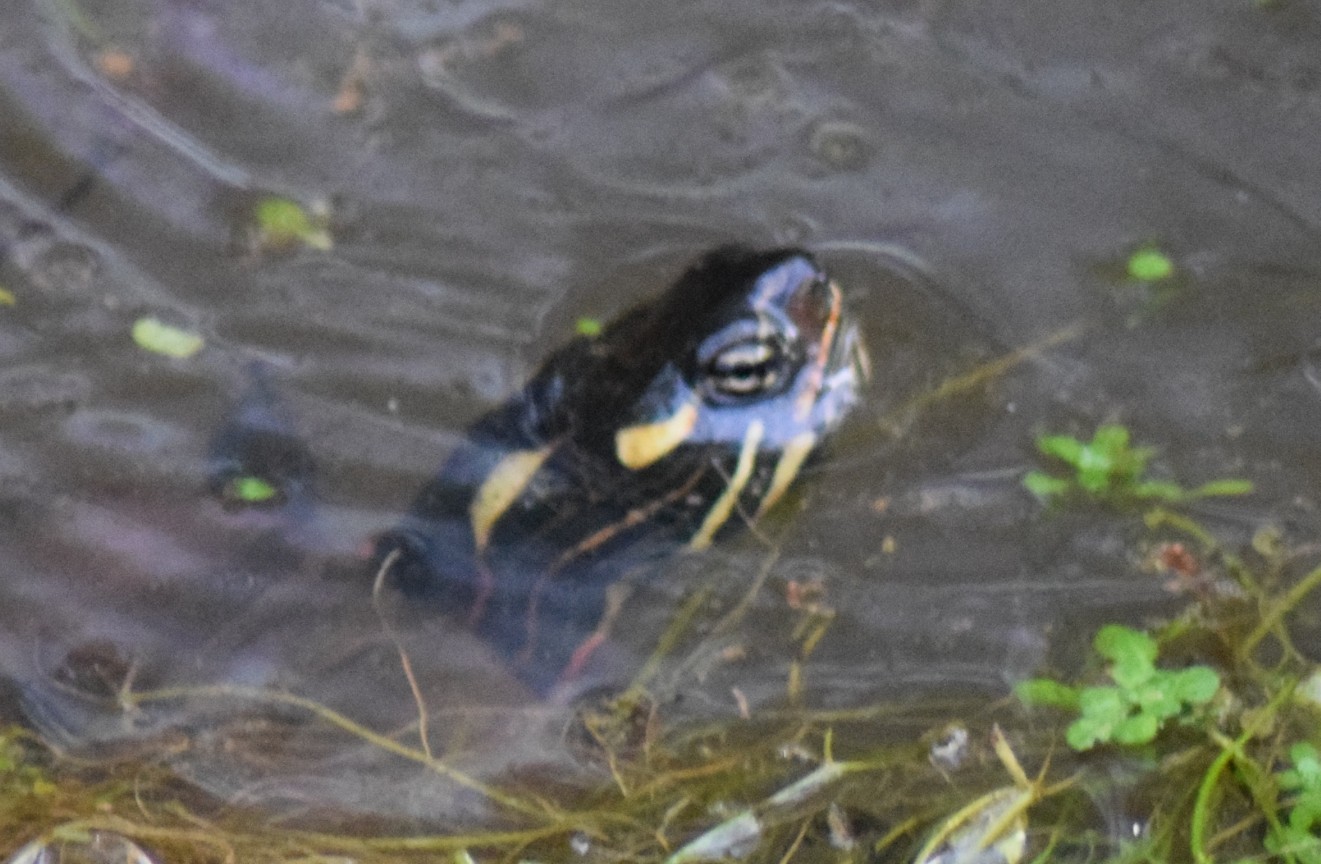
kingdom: Animalia
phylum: Chordata
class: Testudines
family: Emydidae
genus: Chrysemys
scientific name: Chrysemys picta
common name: Painted turtle
